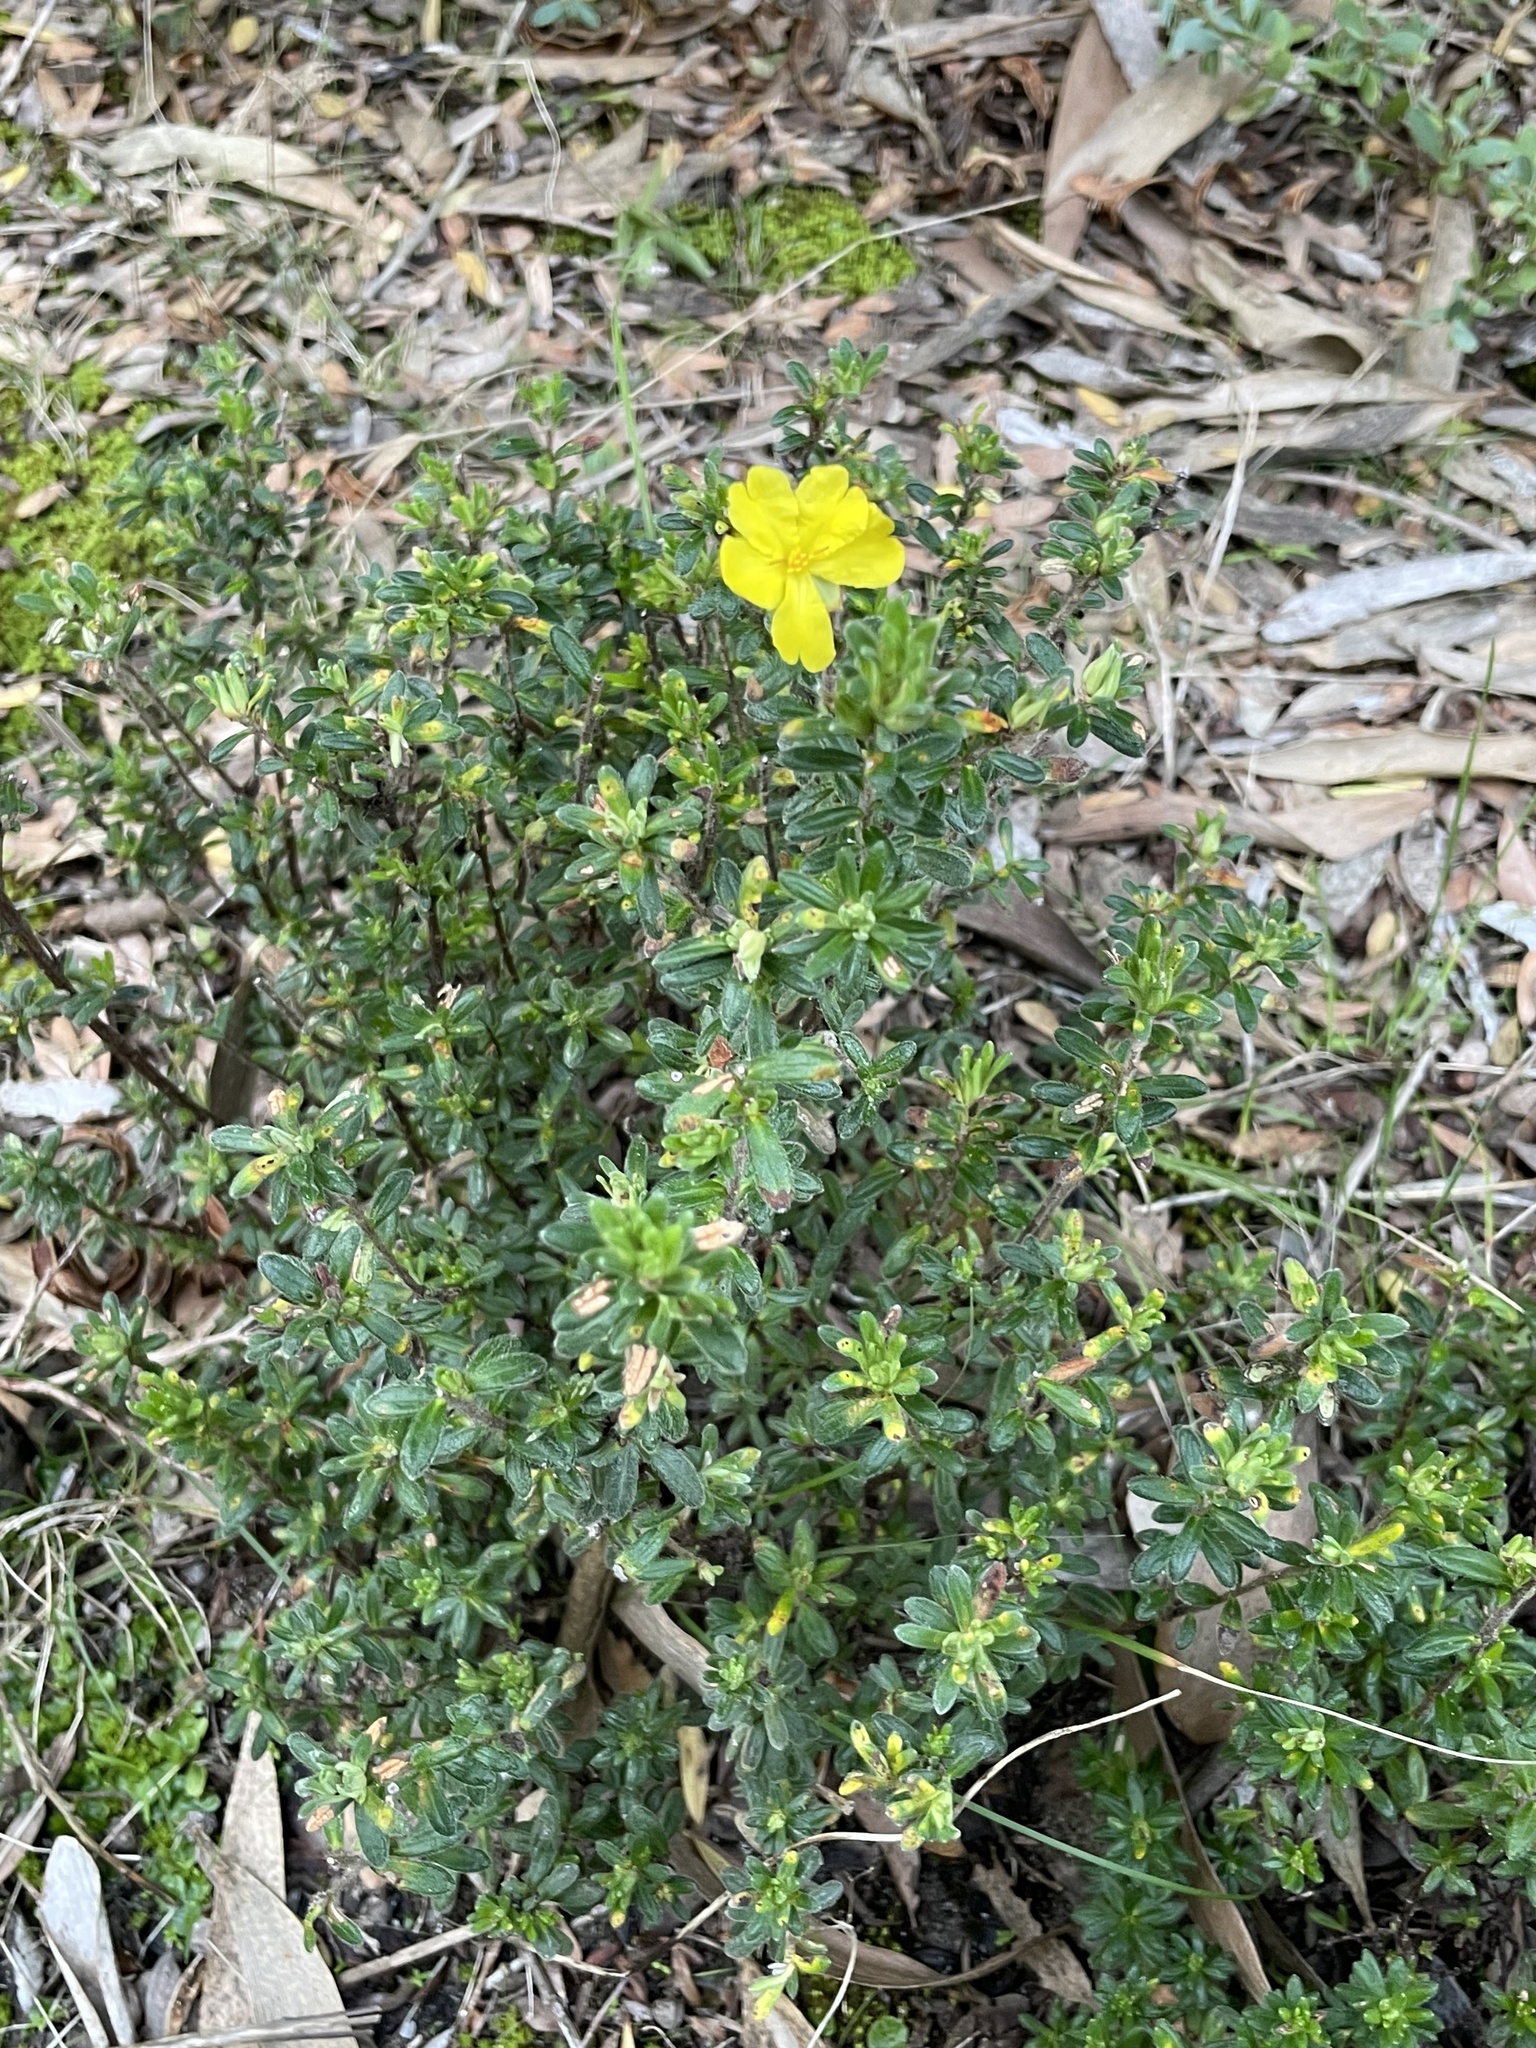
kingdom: Plantae
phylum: Tracheophyta
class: Magnoliopsida
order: Dilleniales
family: Dilleniaceae
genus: Hibbertia
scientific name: Hibbertia sericea
